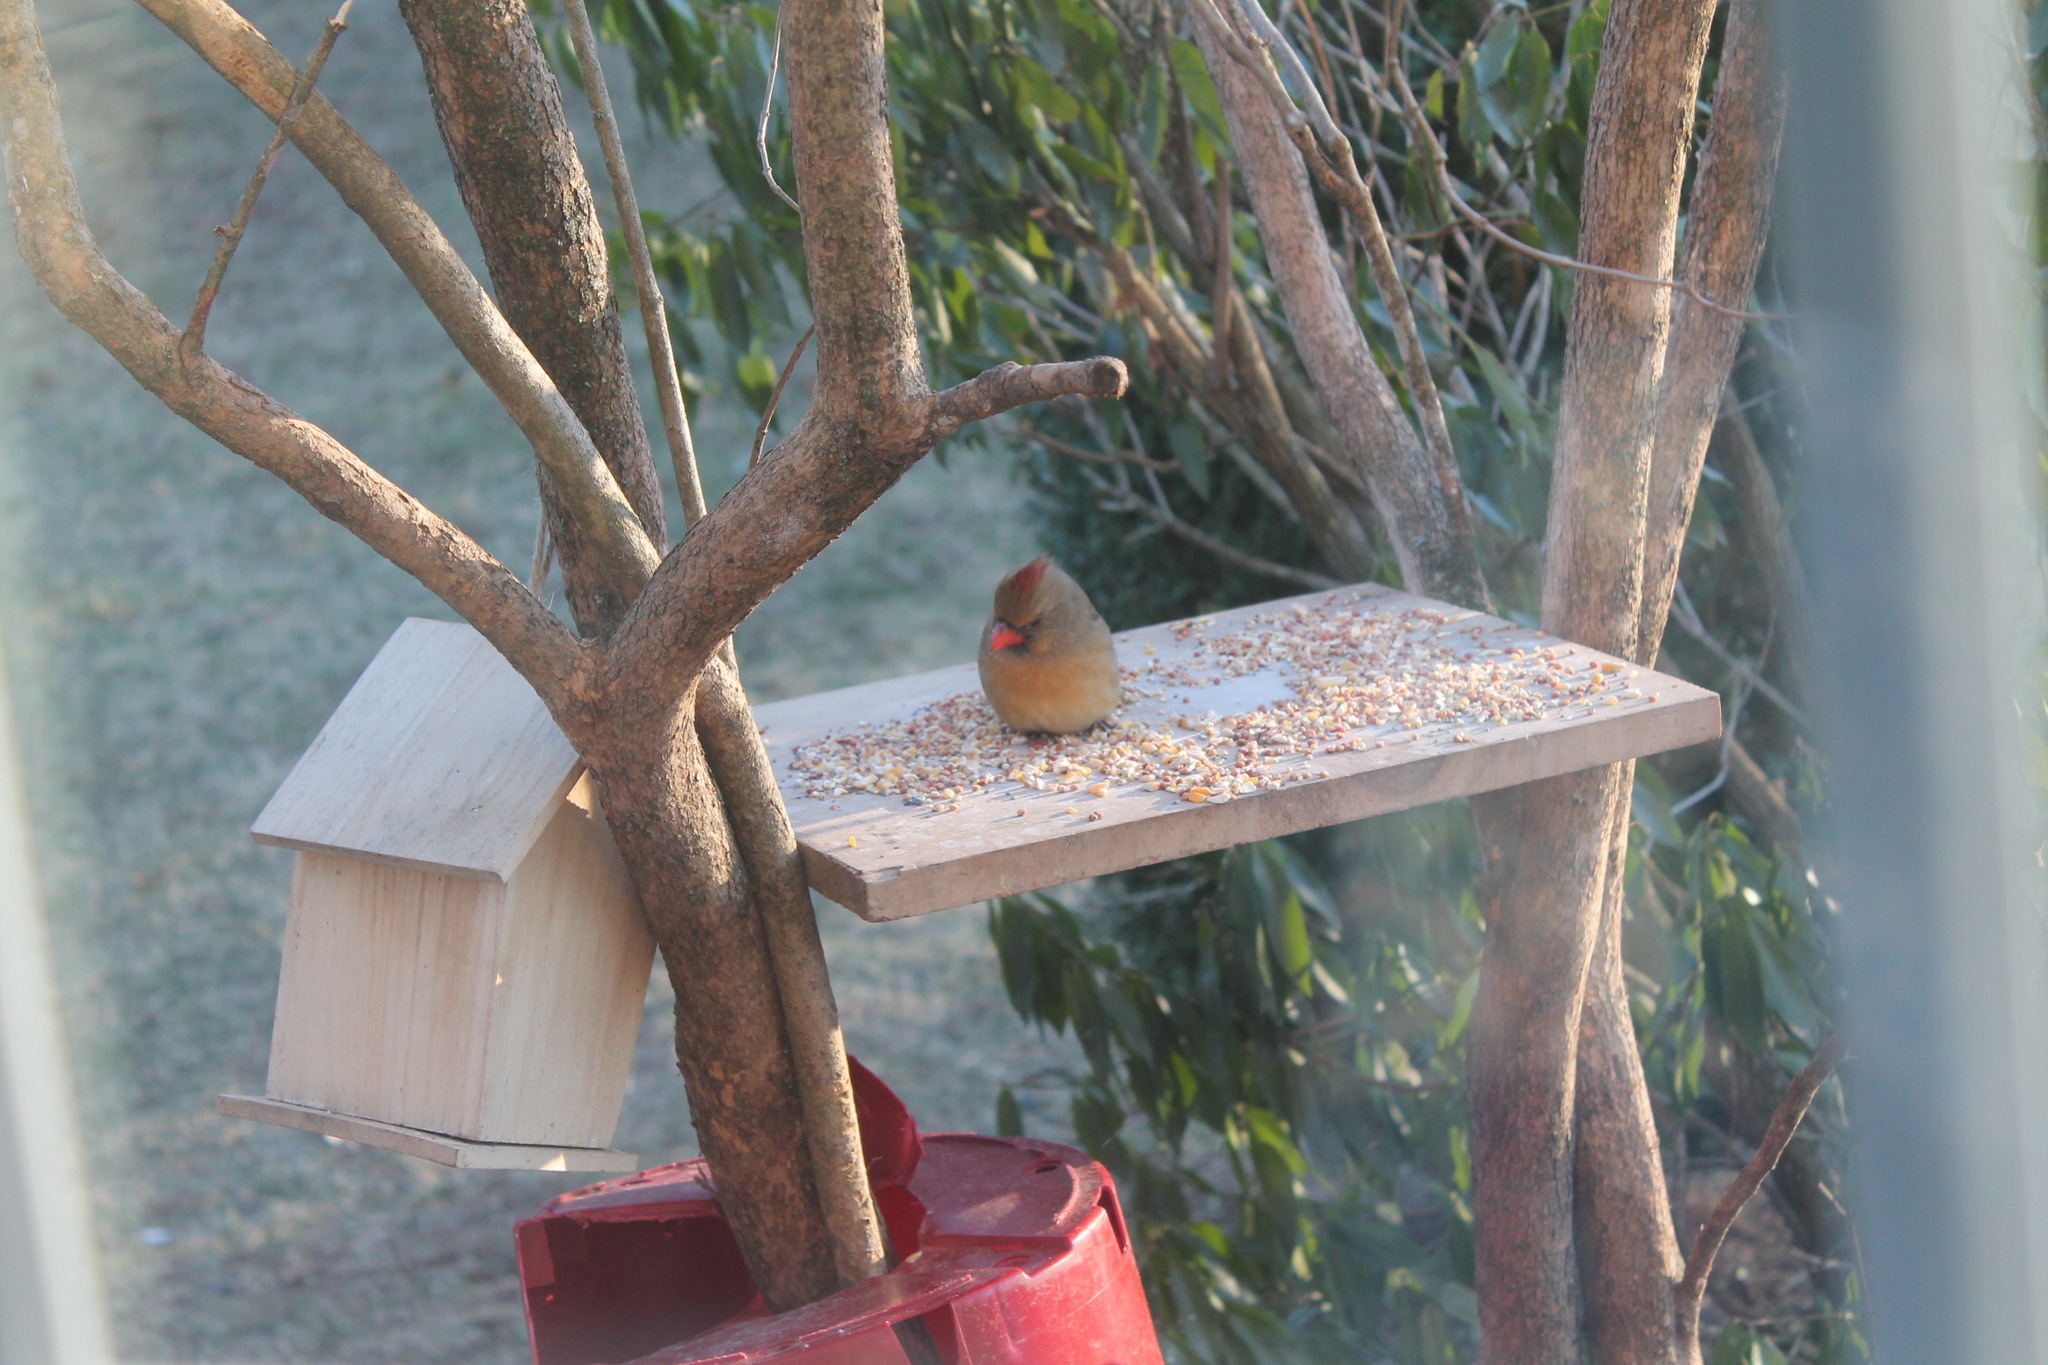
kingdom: Animalia
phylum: Chordata
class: Aves
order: Passeriformes
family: Cardinalidae
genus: Cardinalis
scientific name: Cardinalis cardinalis
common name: Northern cardinal
